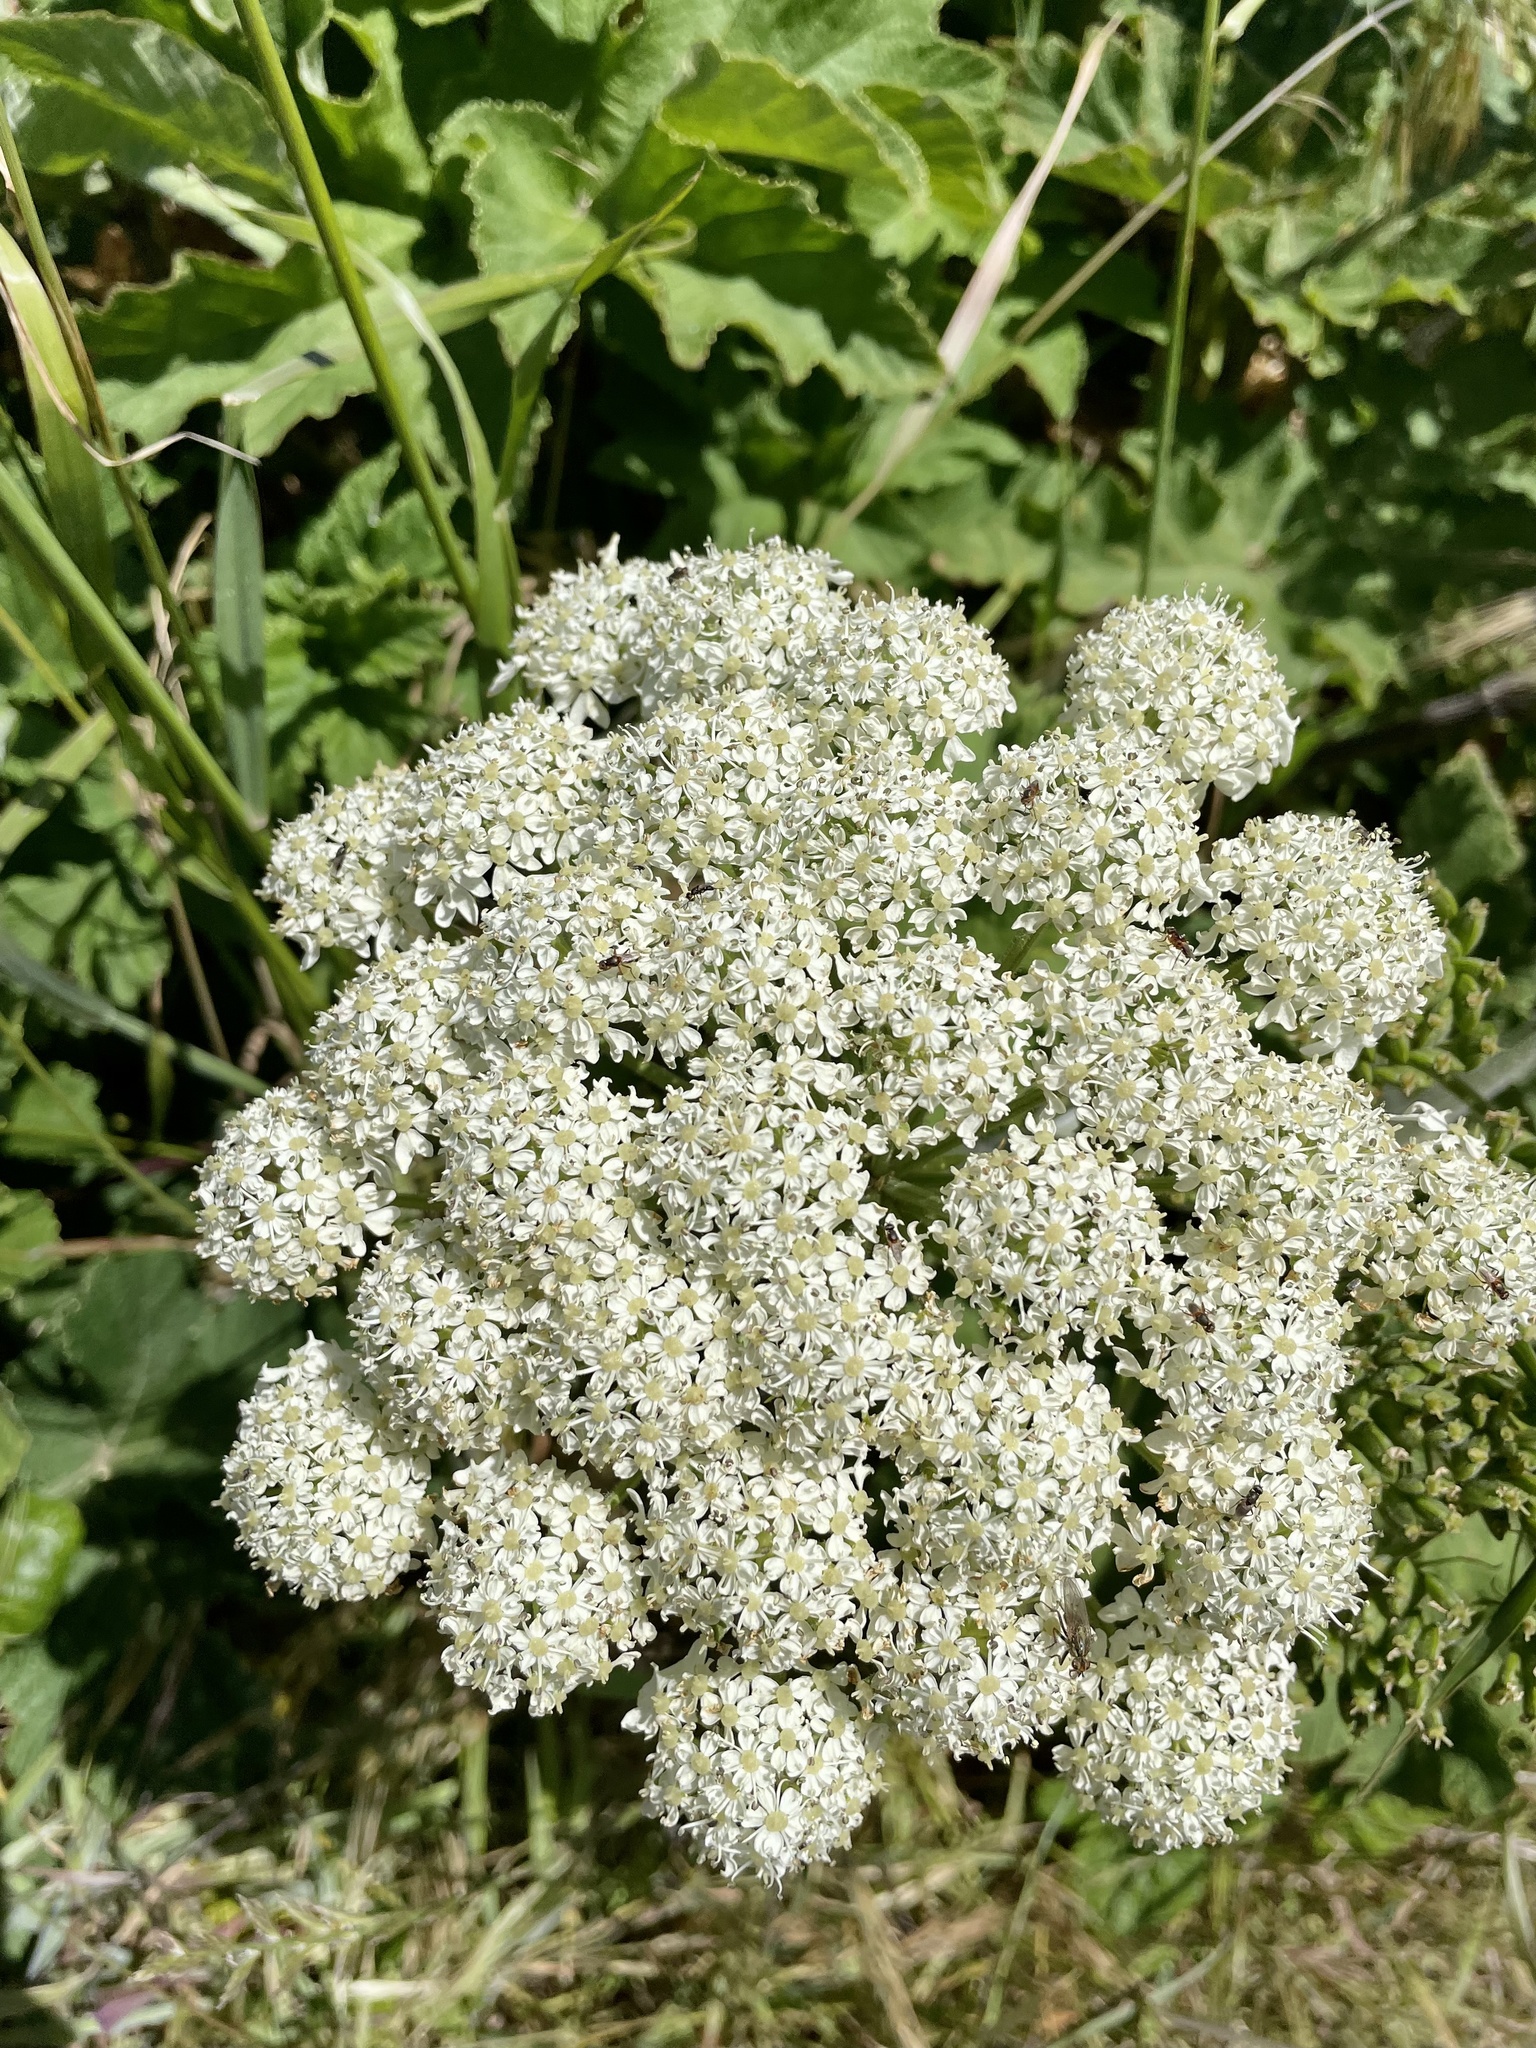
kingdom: Plantae
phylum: Tracheophyta
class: Magnoliopsida
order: Apiales
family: Apiaceae
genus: Heracleum
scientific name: Heracleum maximum
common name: American cow parsnip
